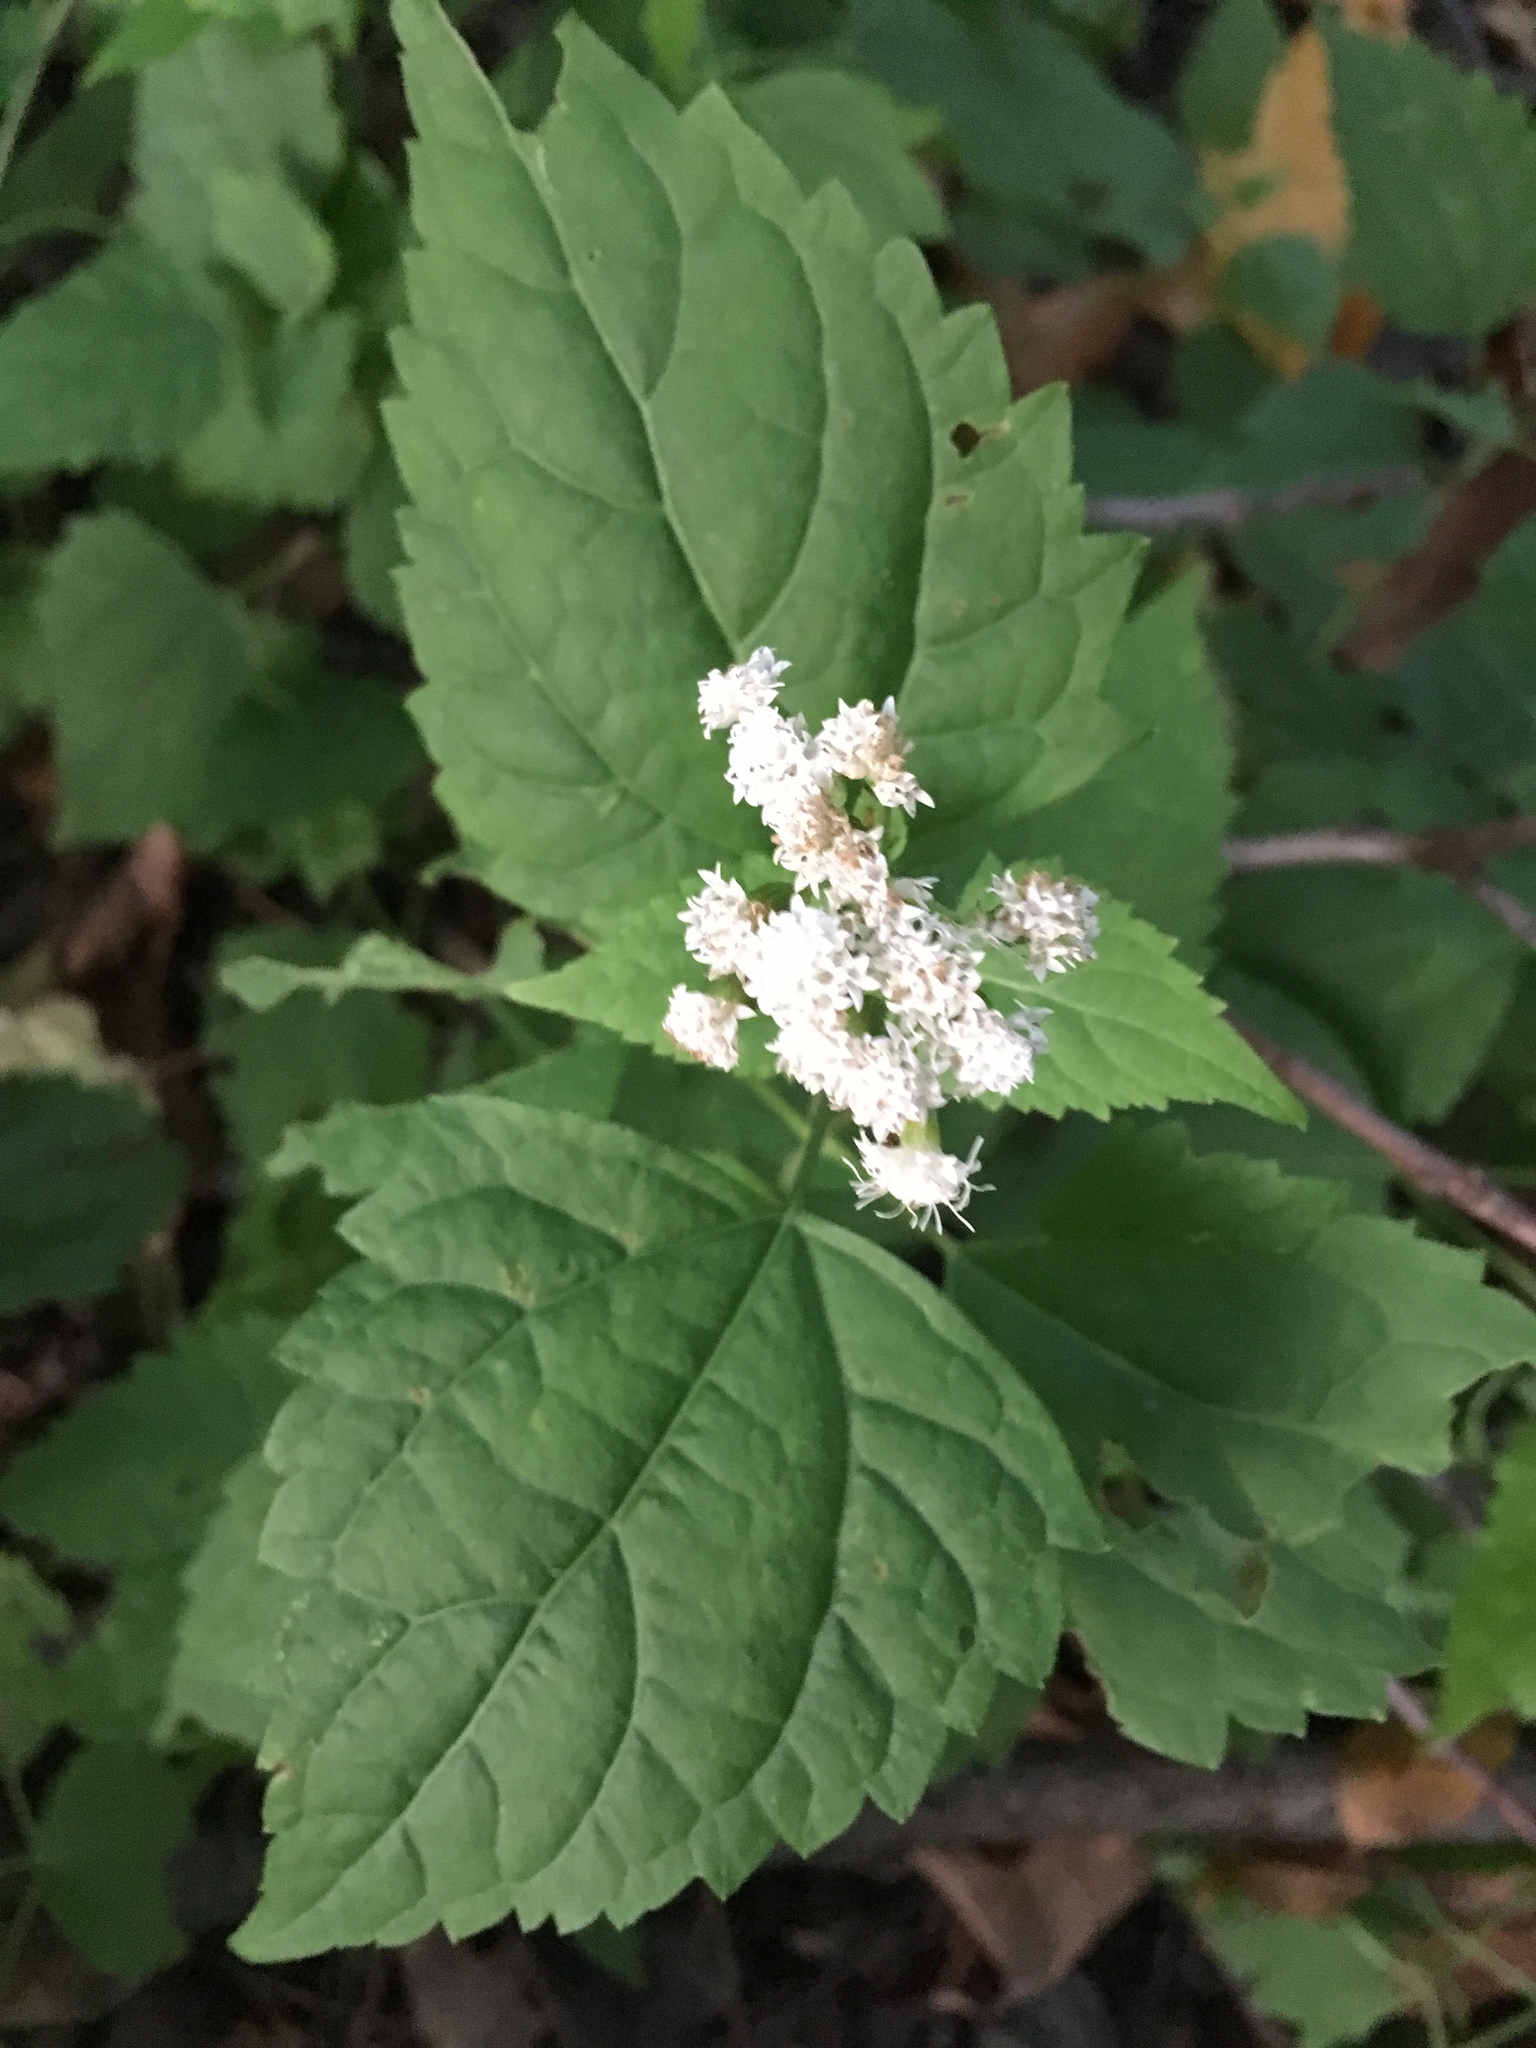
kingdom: Plantae
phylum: Tracheophyta
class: Magnoliopsida
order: Asterales
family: Asteraceae
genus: Ageratina
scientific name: Ageratina altissima
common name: White snakeroot
